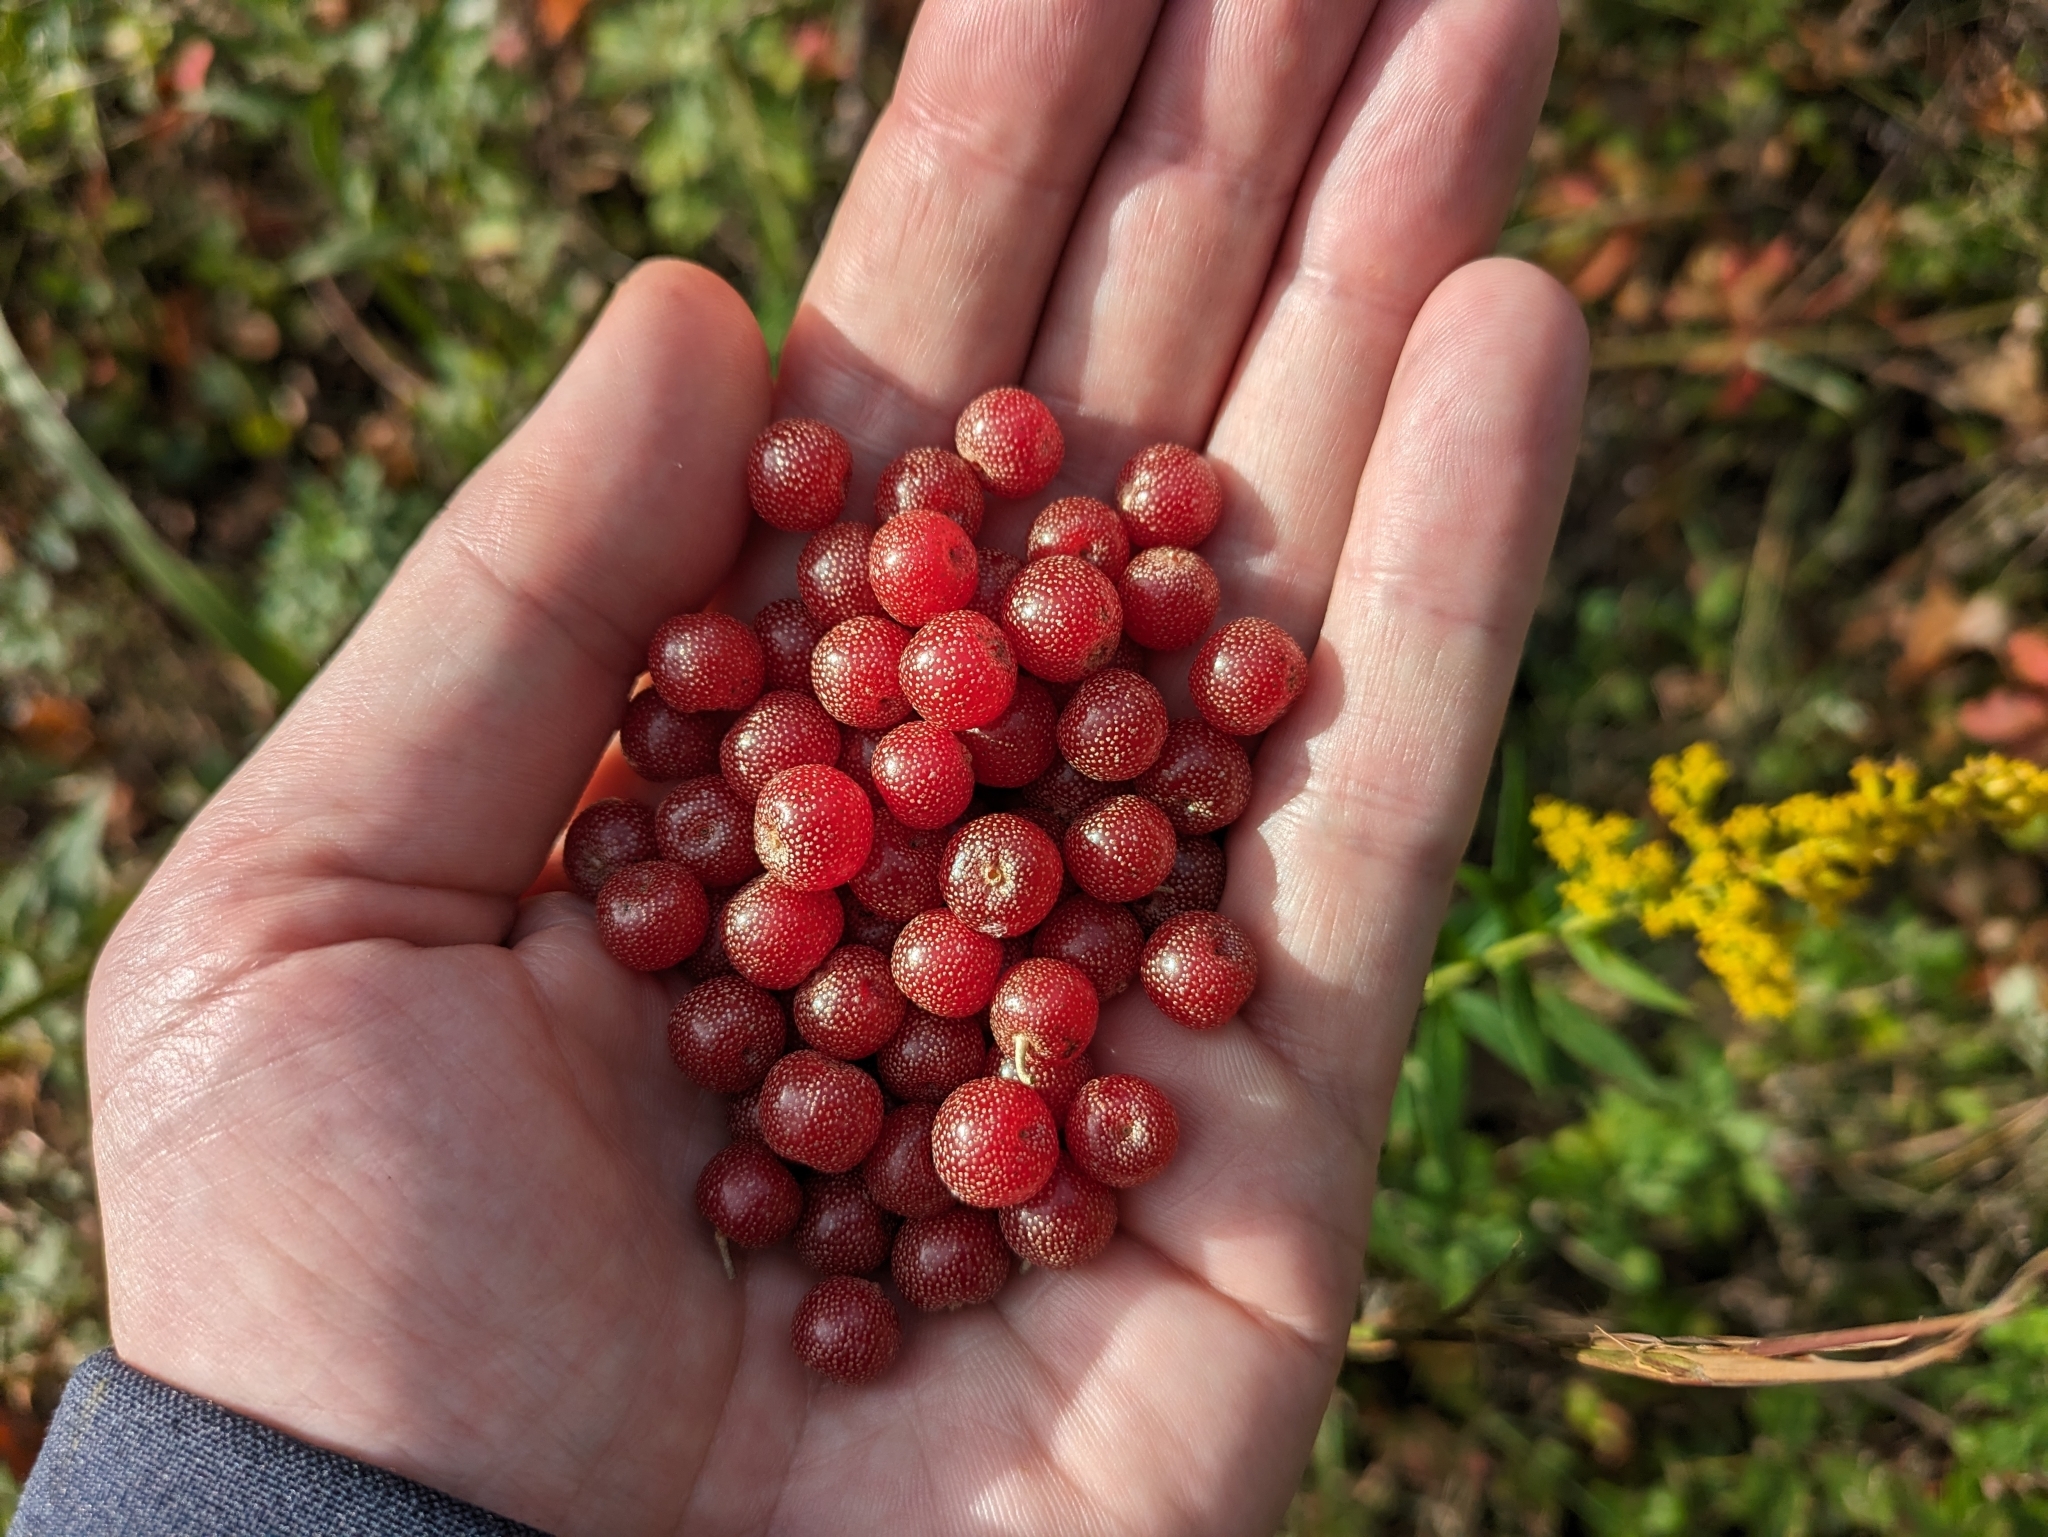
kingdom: Plantae
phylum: Tracheophyta
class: Magnoliopsida
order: Rosales
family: Elaeagnaceae
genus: Elaeagnus
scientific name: Elaeagnus umbellata
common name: Autumn olive
